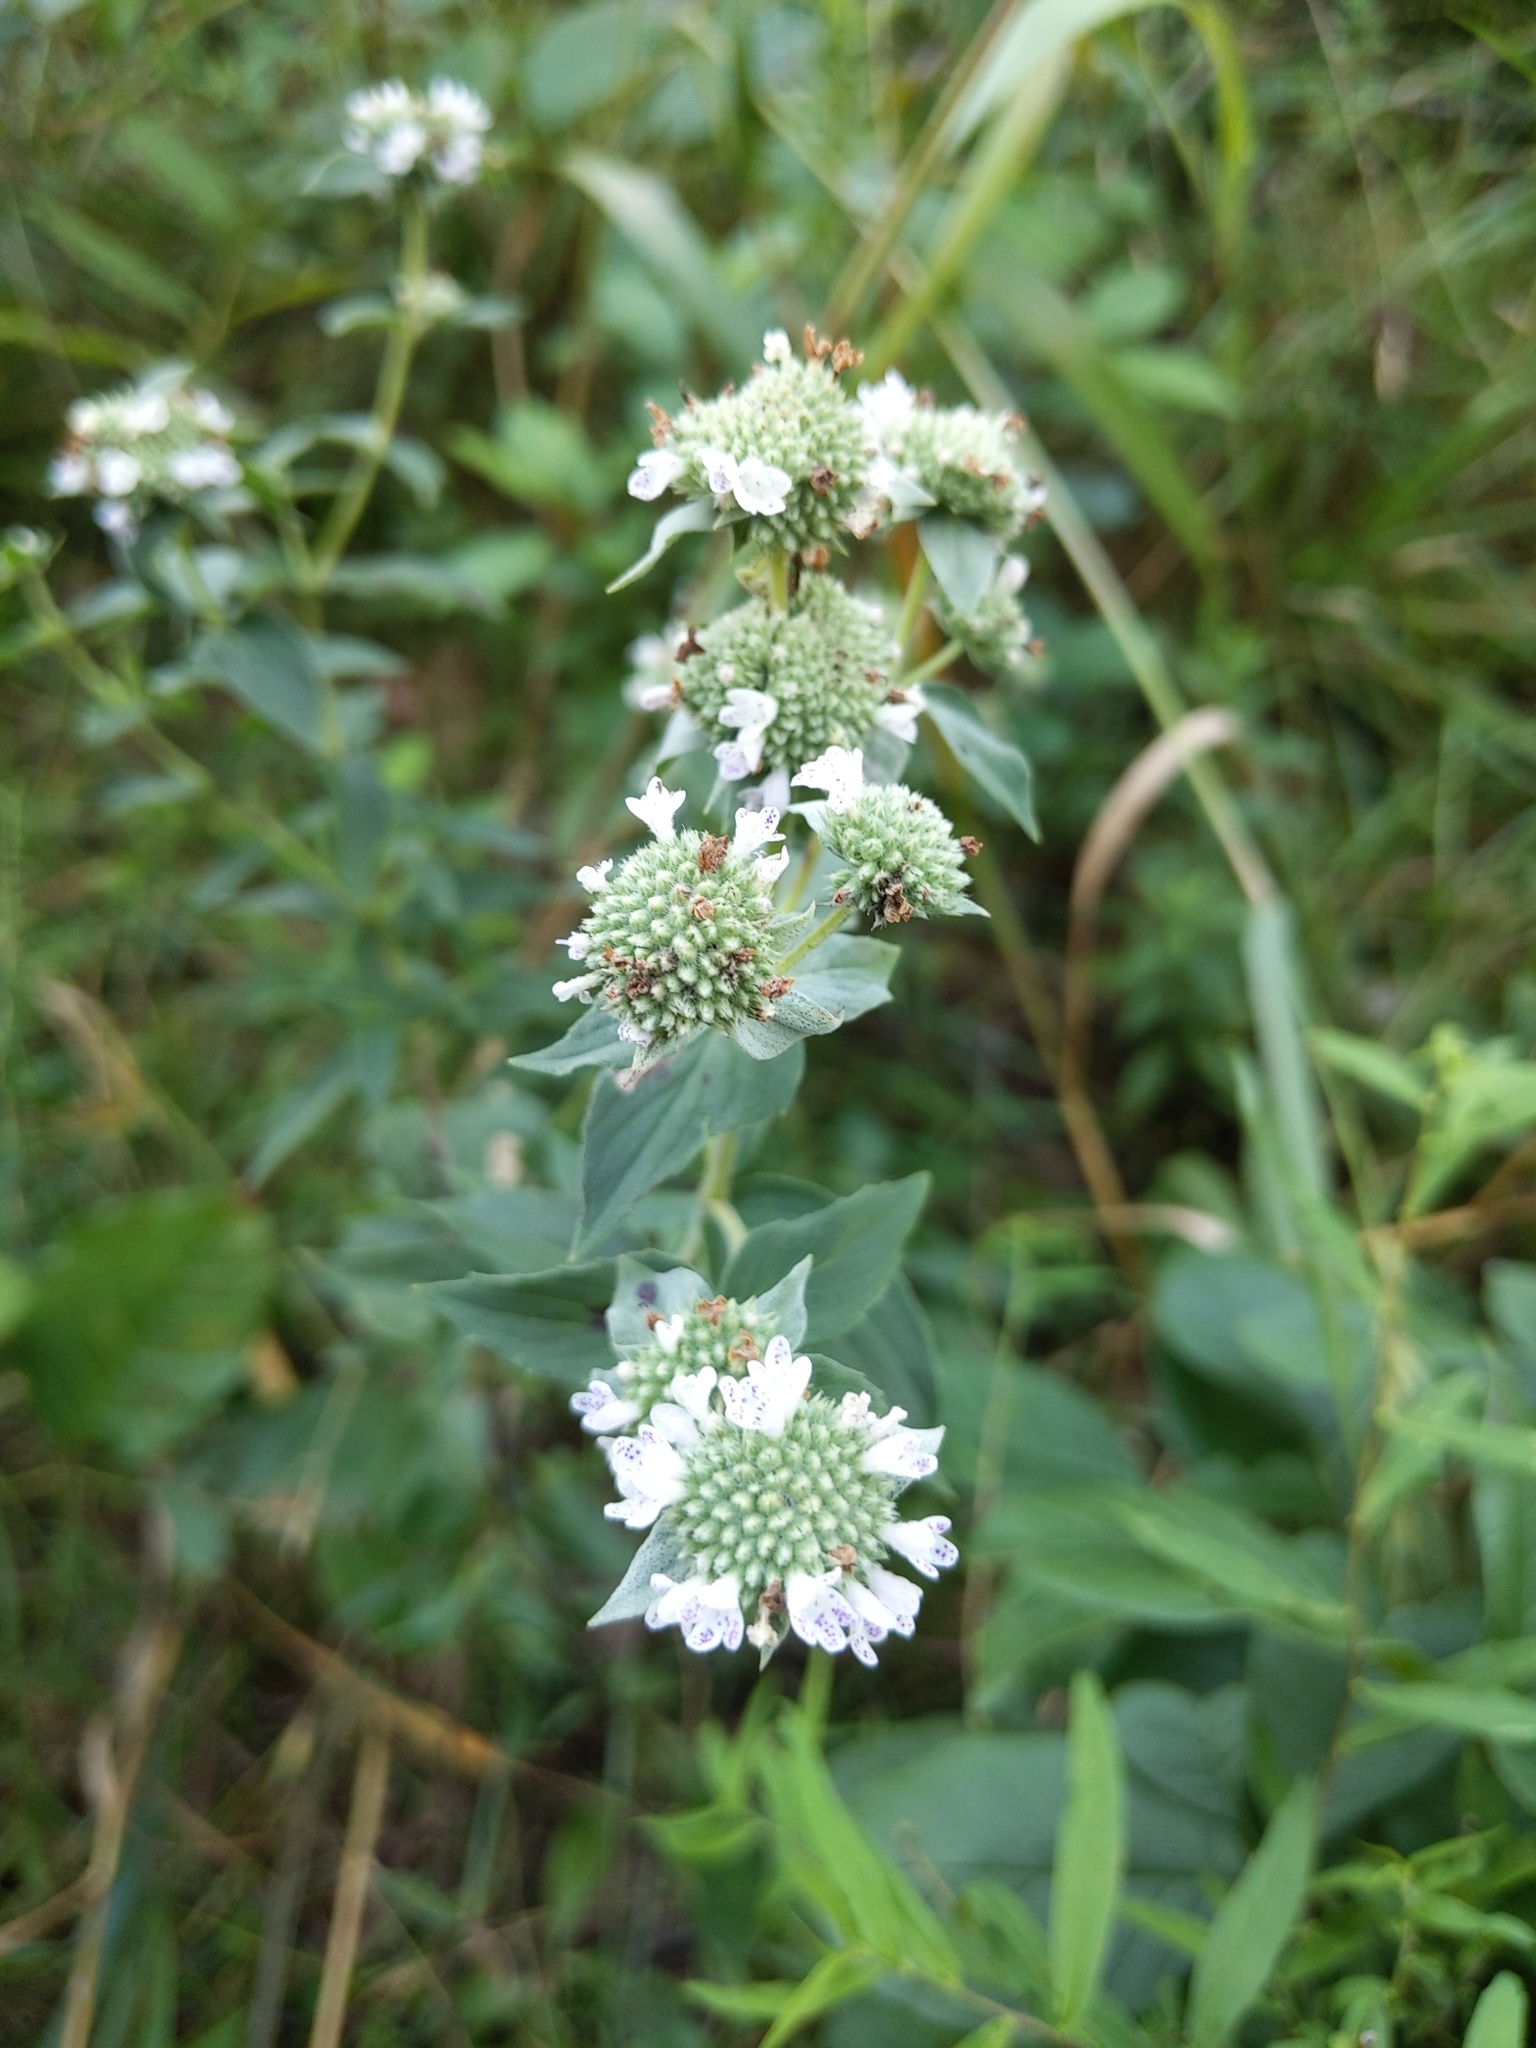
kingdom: Plantae
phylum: Tracheophyta
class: Magnoliopsida
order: Lamiales
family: Lamiaceae
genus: Pycnanthemum
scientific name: Pycnanthemum muticum
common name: Blunt mountain-mint
